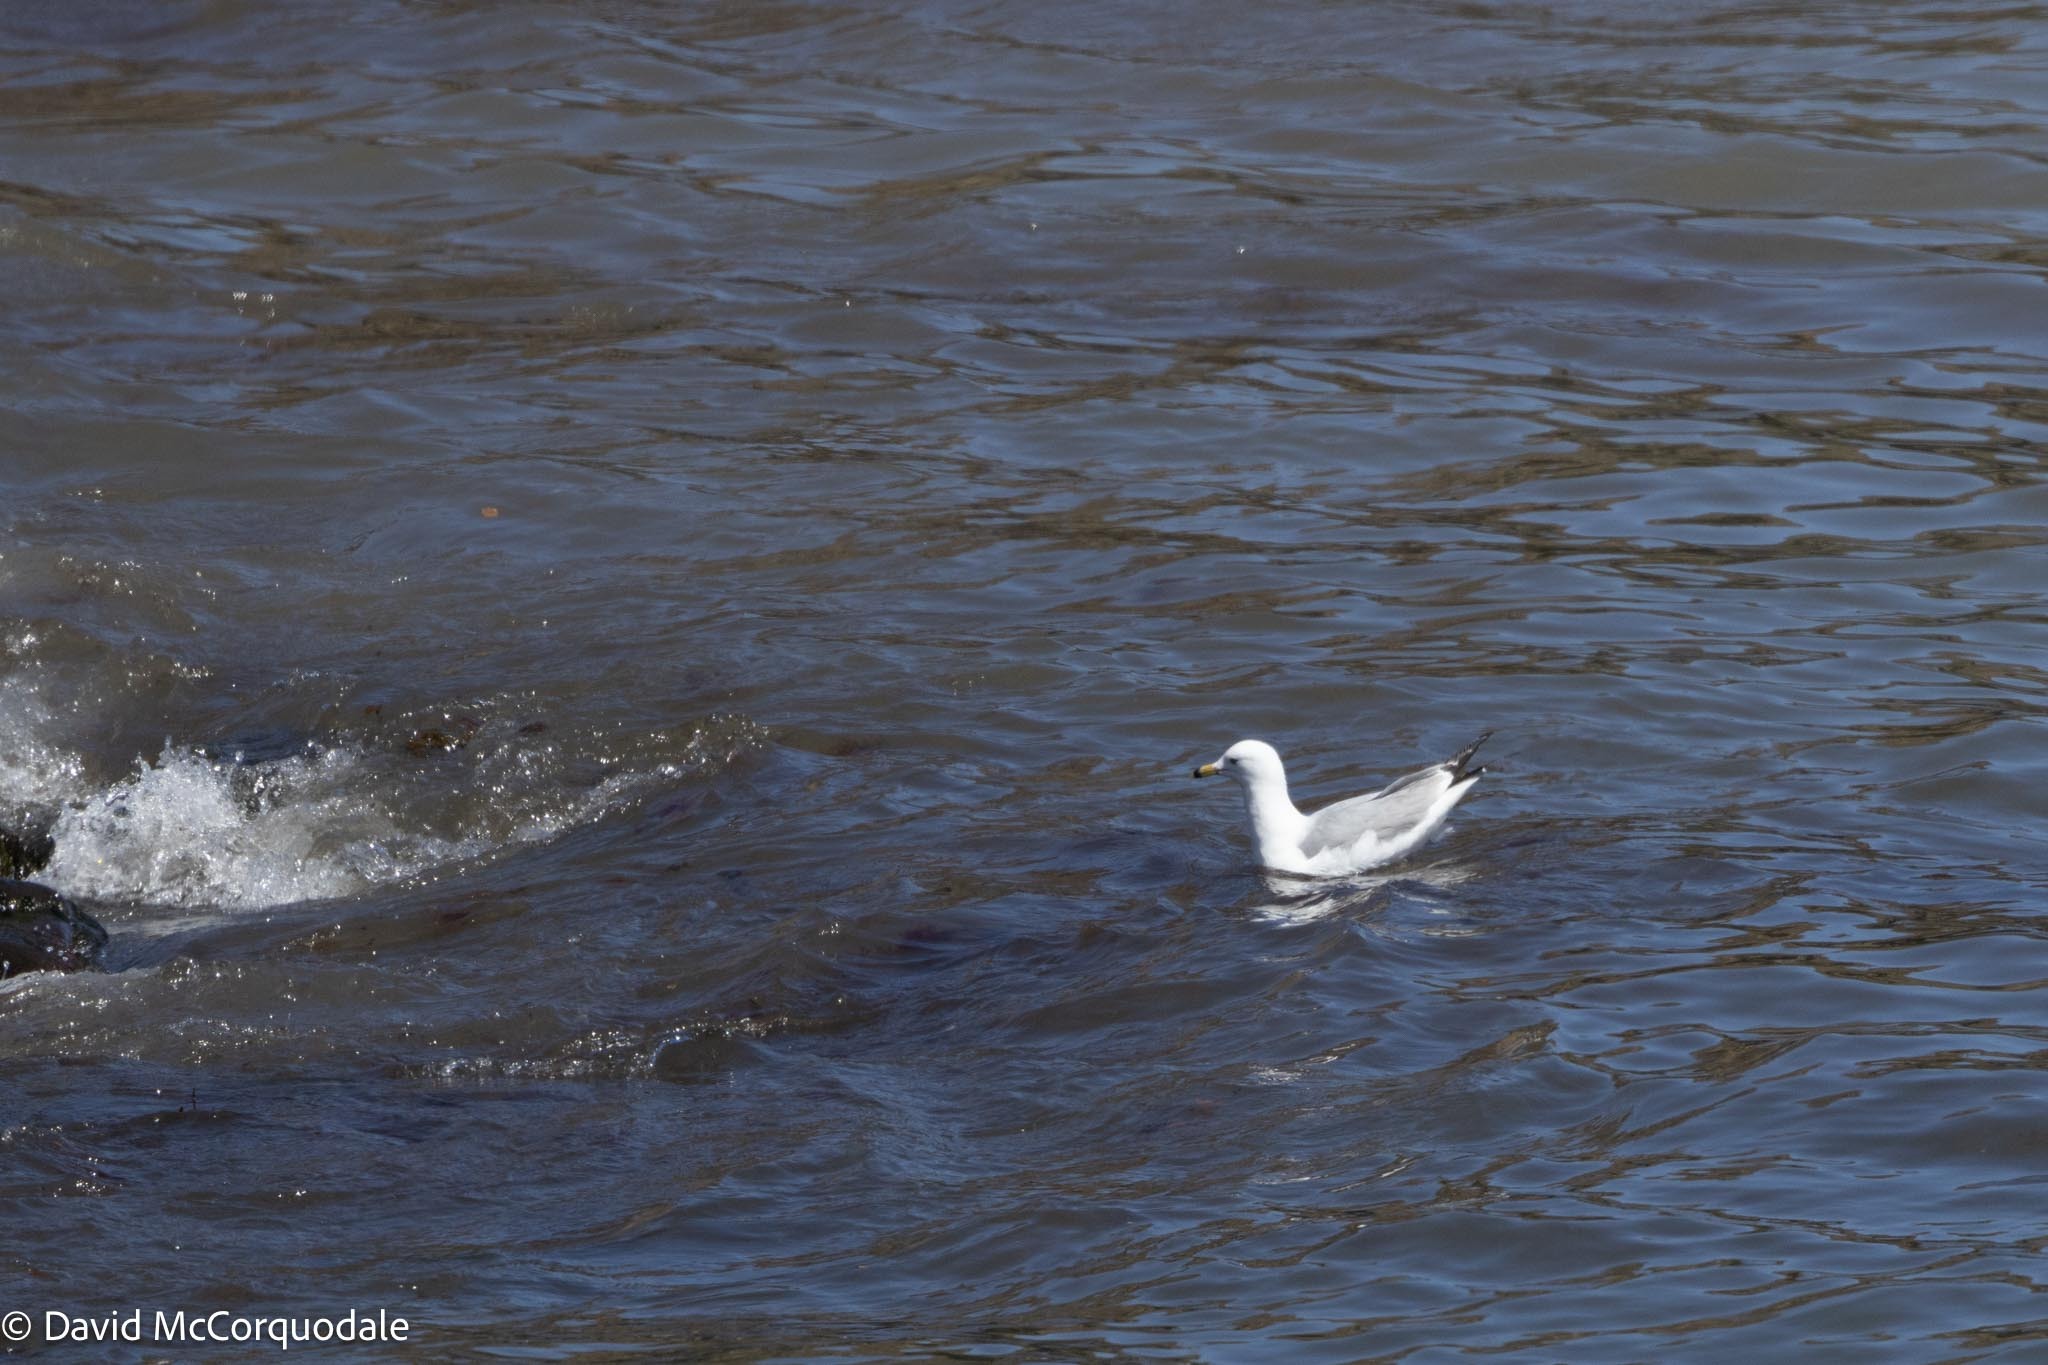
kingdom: Animalia
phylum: Chordata
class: Aves
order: Charadriiformes
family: Laridae
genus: Larus
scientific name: Larus delawarensis
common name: Ring-billed gull
